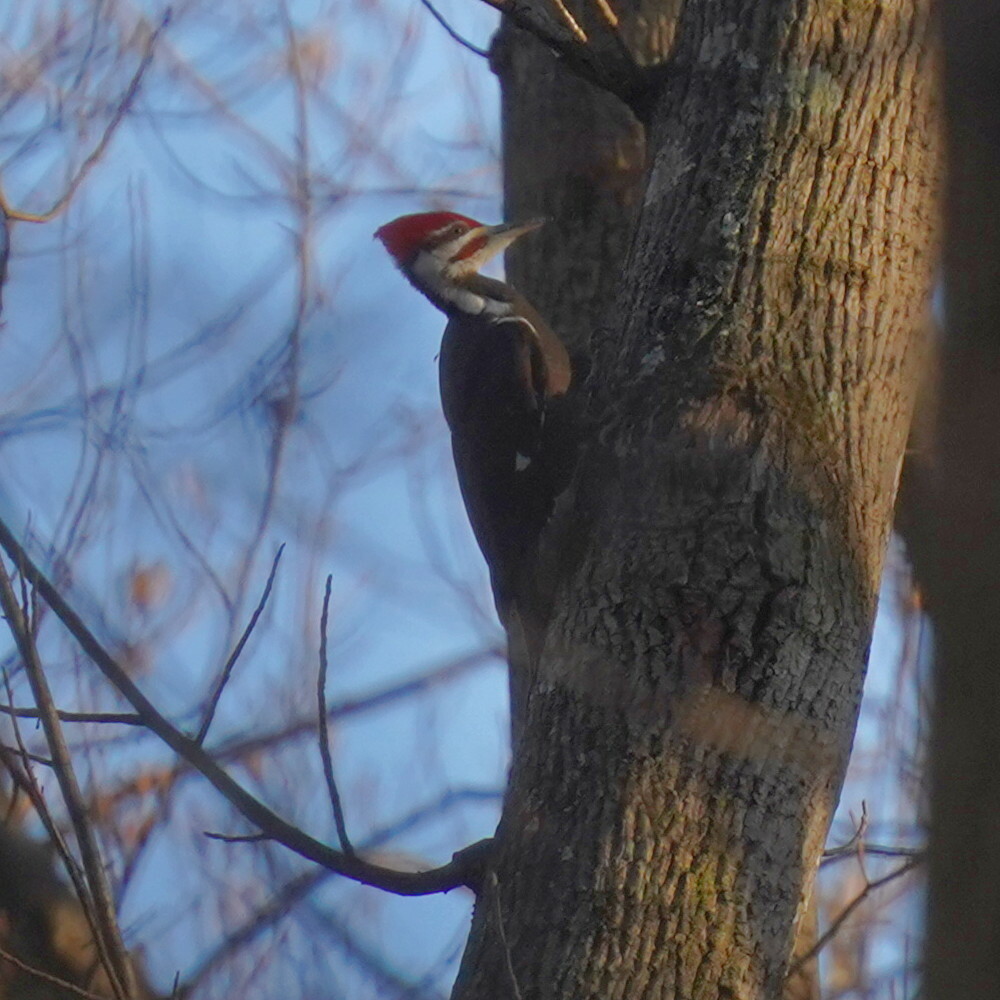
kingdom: Animalia
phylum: Chordata
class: Aves
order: Piciformes
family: Picidae
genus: Dryocopus
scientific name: Dryocopus pileatus
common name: Pileated woodpecker
